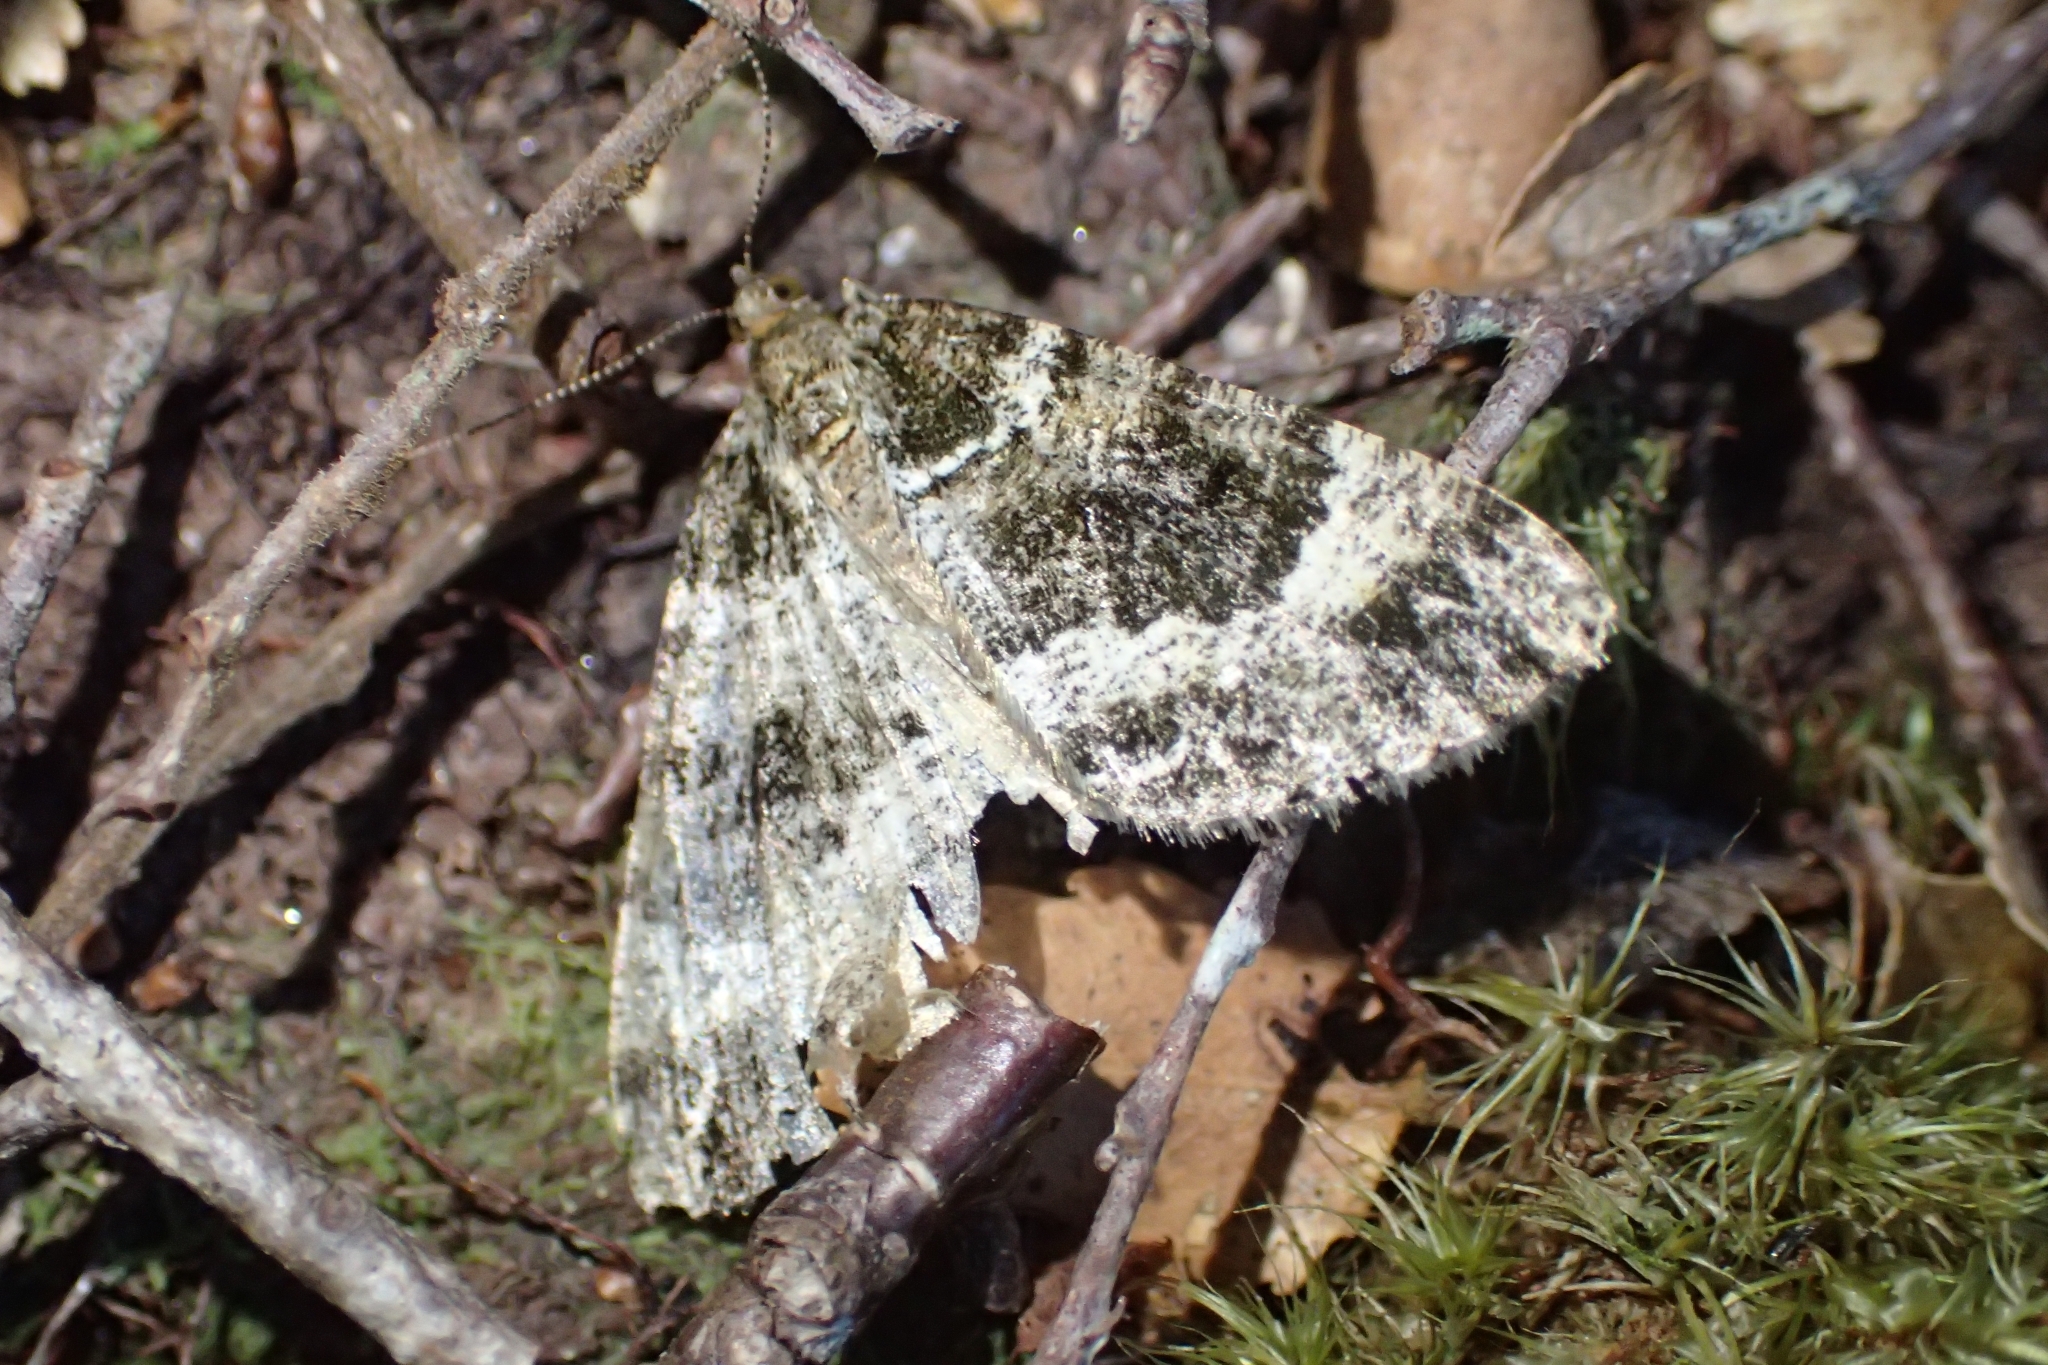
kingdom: Animalia
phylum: Arthropoda
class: Insecta
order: Lepidoptera
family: Geometridae
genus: Pseudocoremia
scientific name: Pseudocoremia productata
